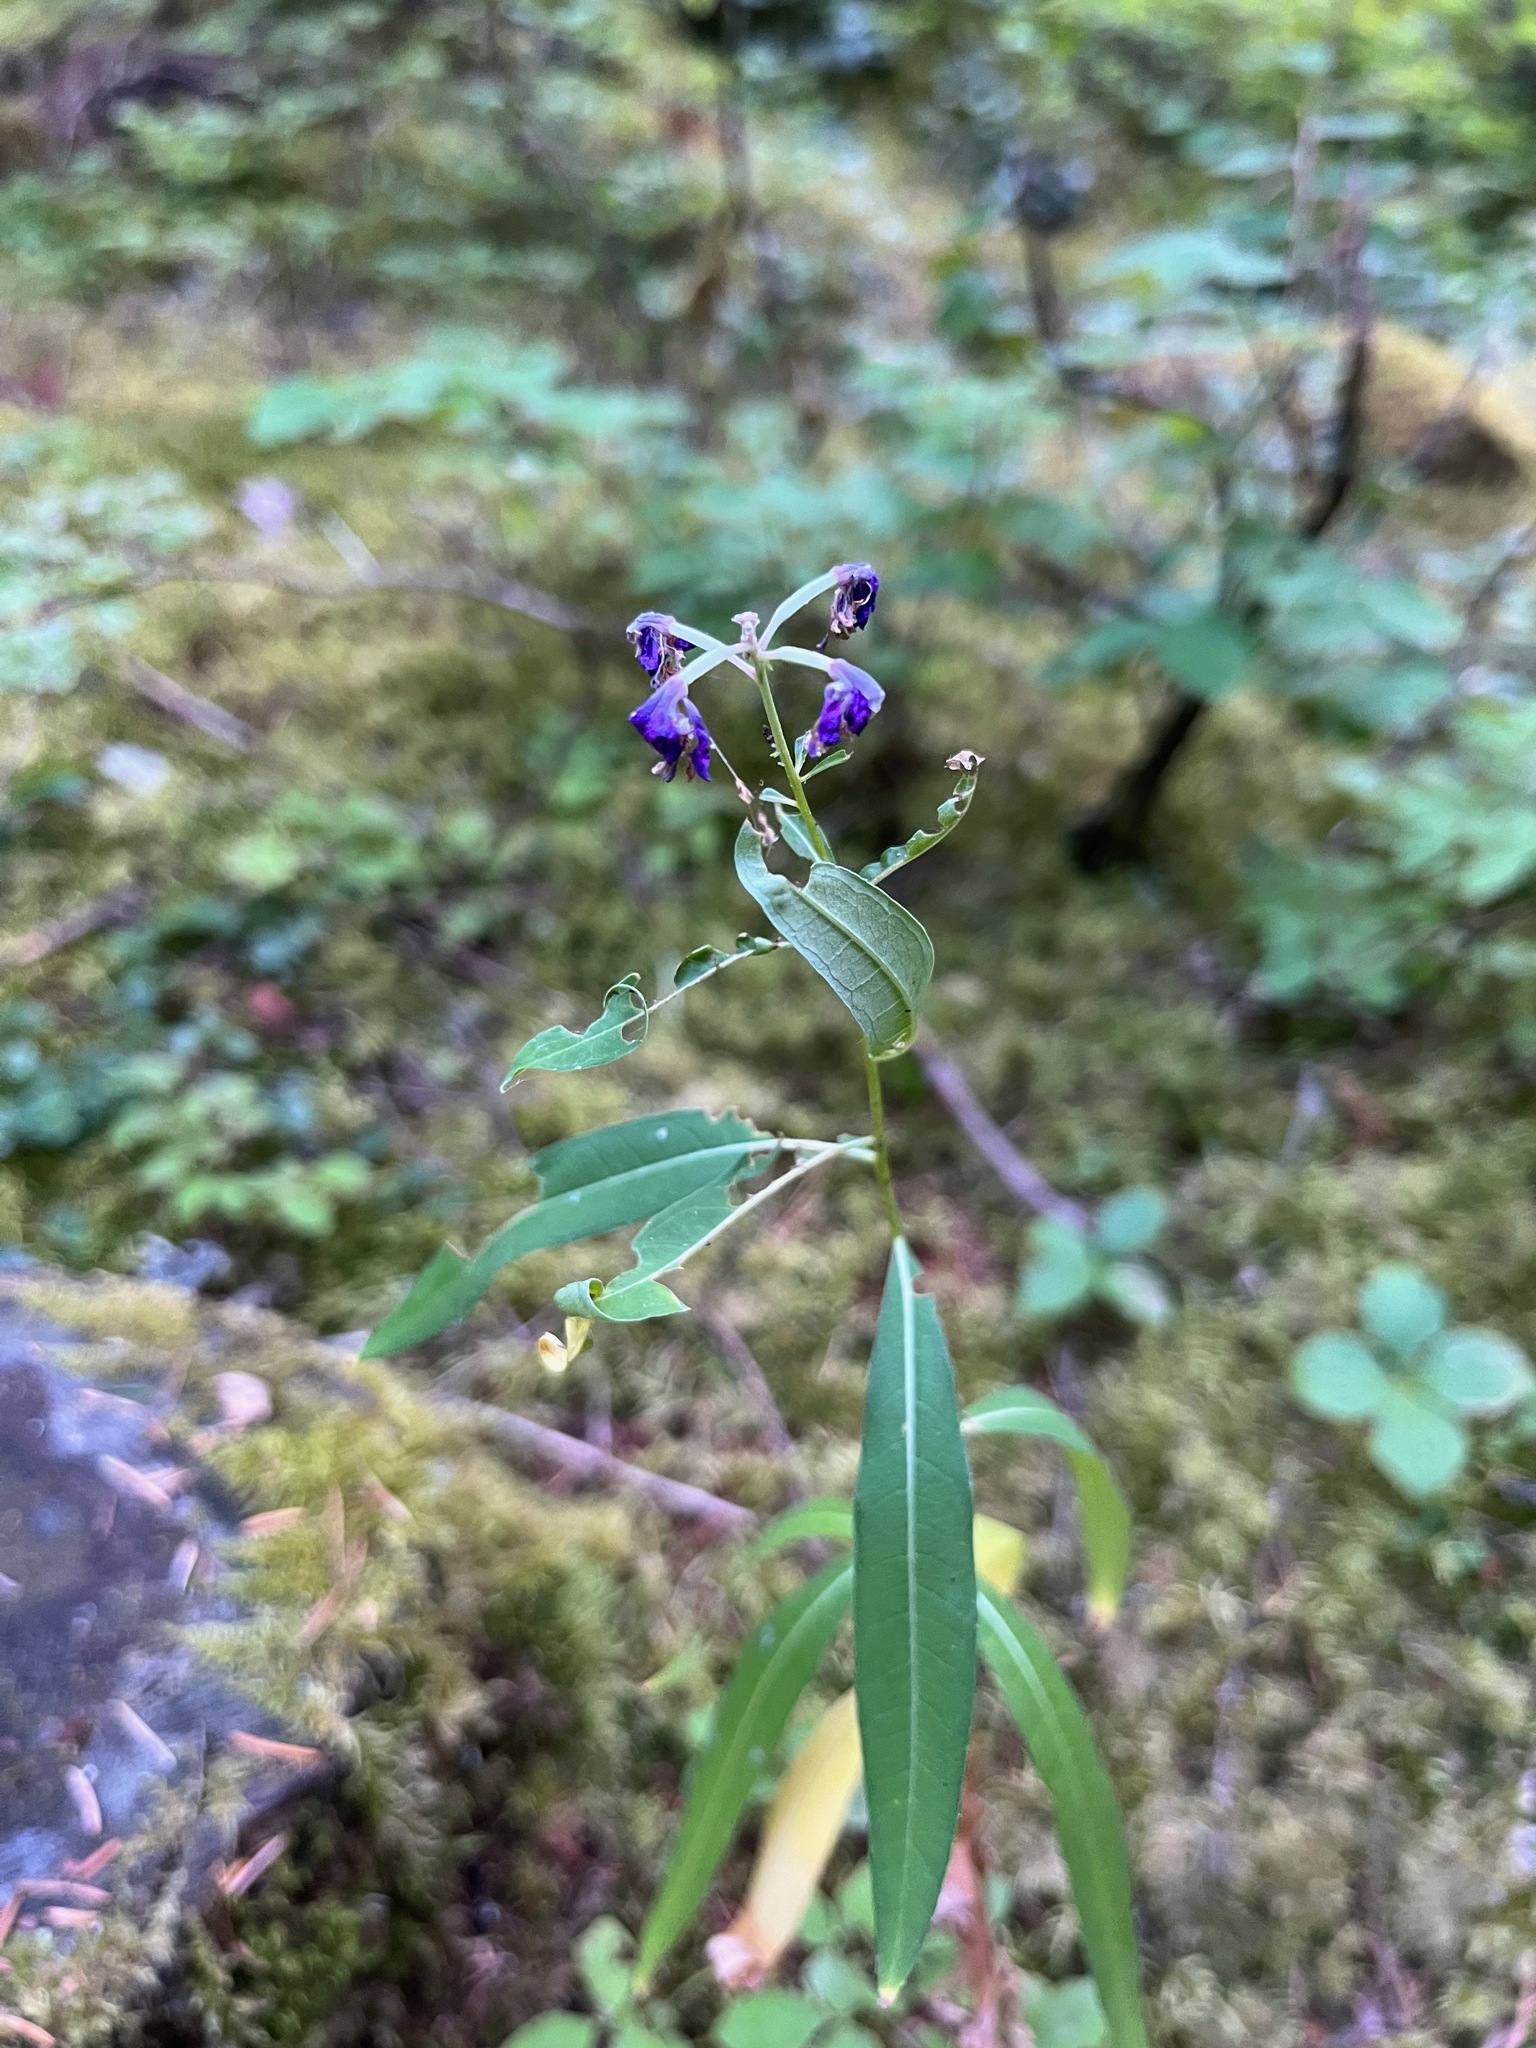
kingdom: Plantae
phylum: Tracheophyta
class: Magnoliopsida
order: Myrtales
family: Onagraceae
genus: Chamaenerion
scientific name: Chamaenerion angustifolium
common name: Fireweed
